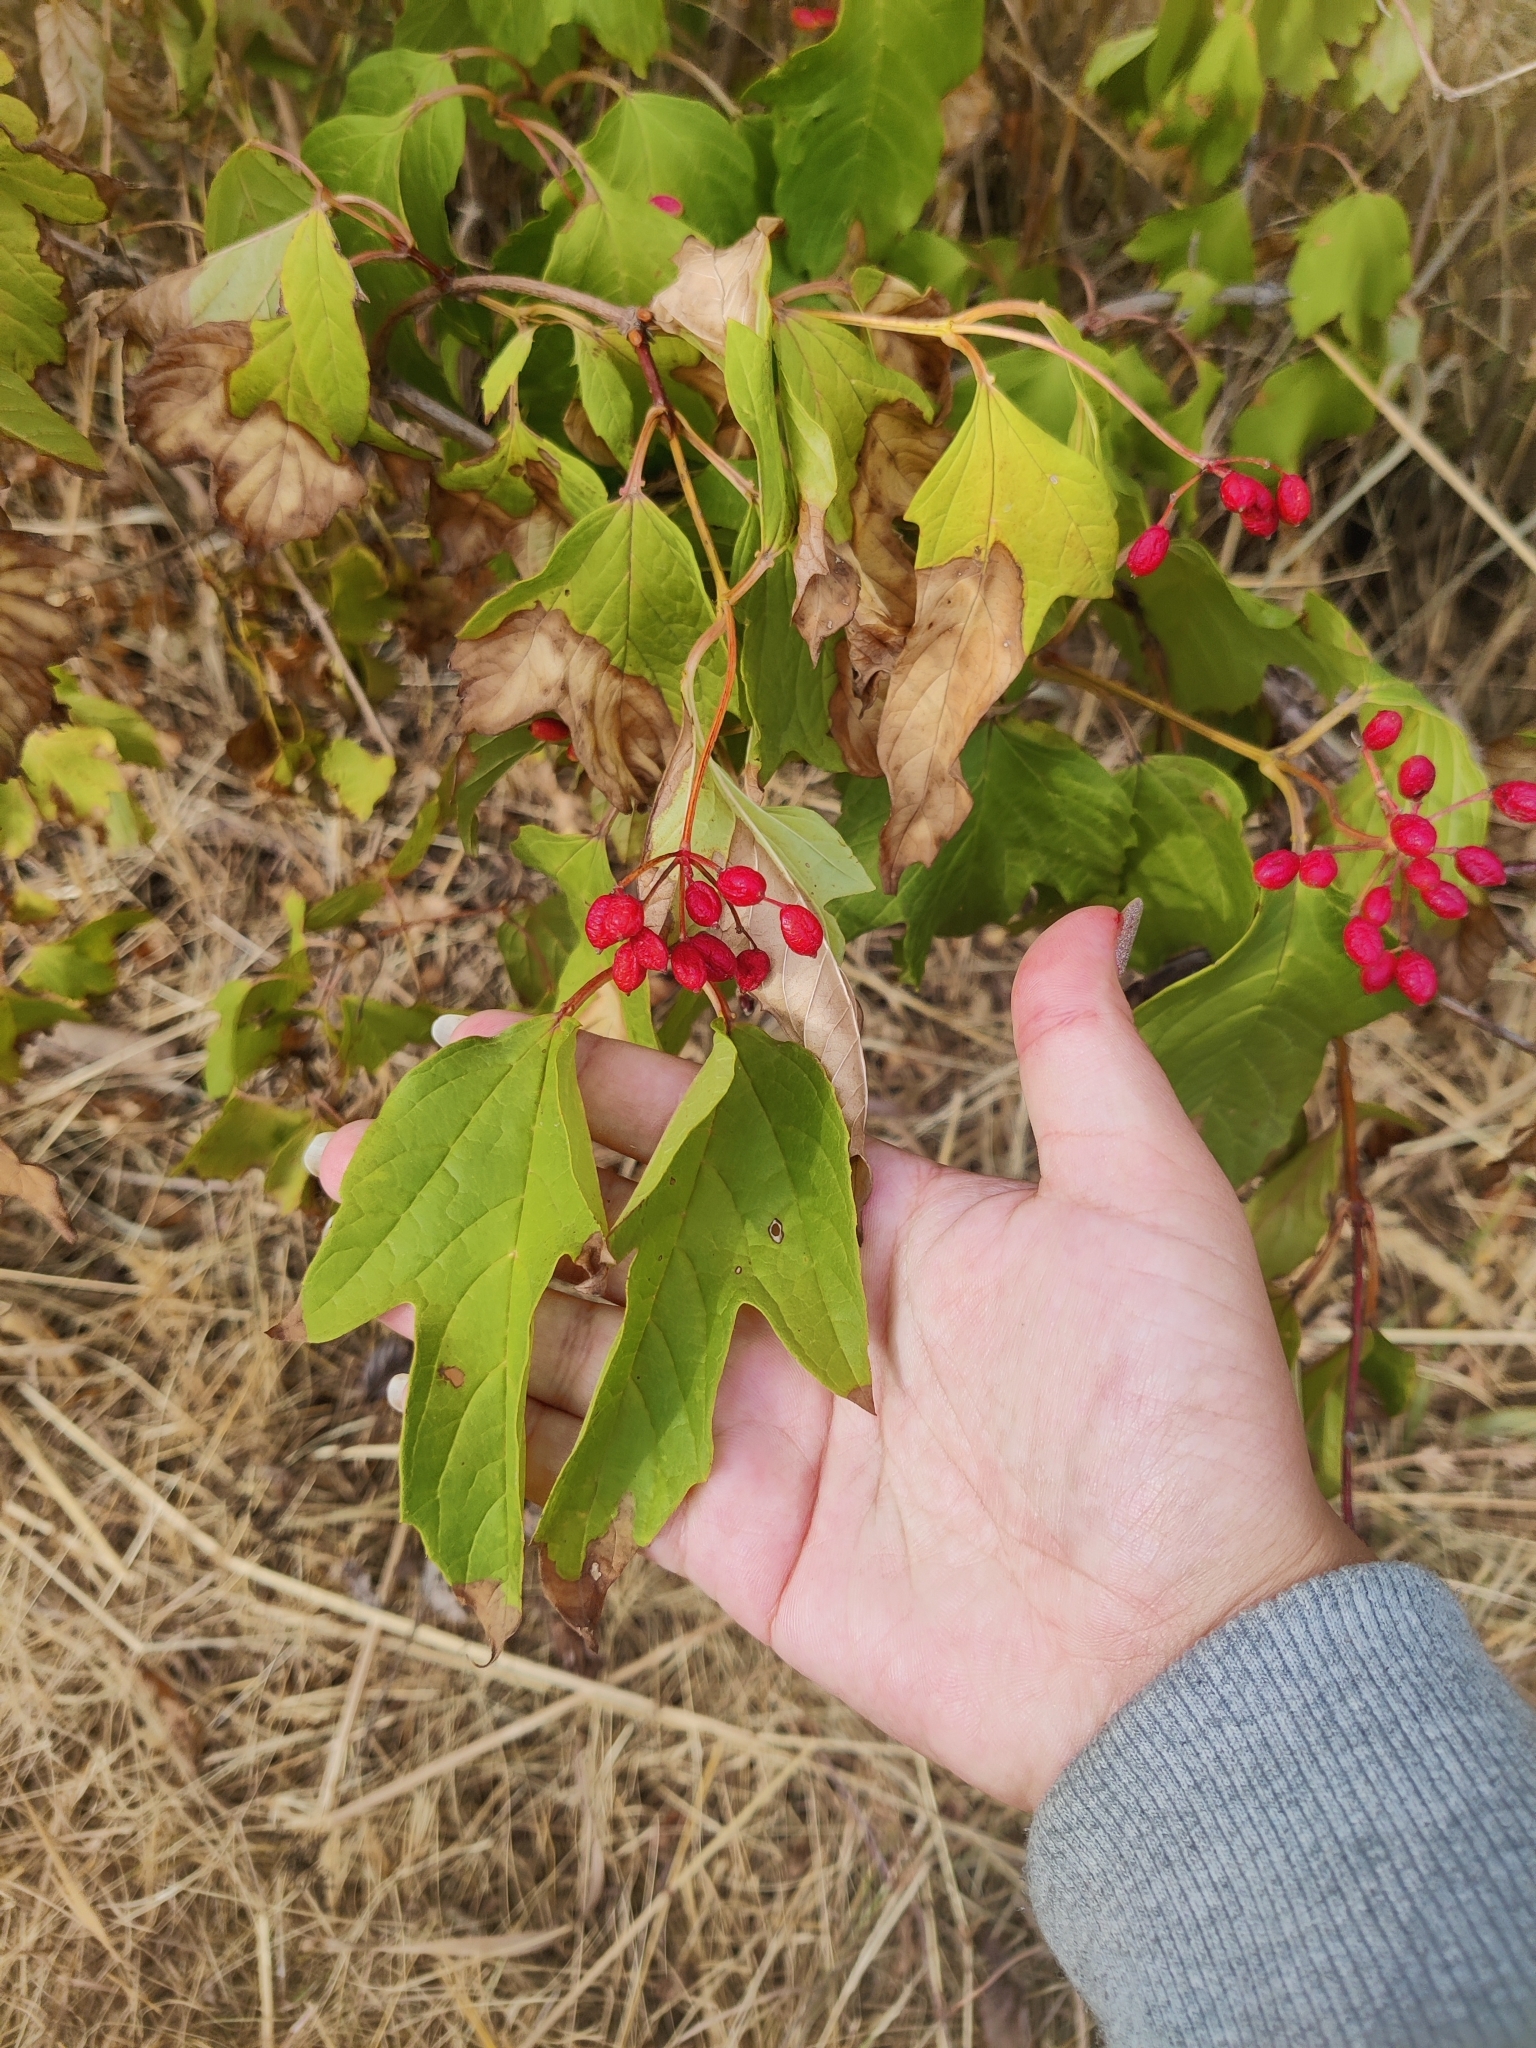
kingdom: Plantae
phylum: Tracheophyta
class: Magnoliopsida
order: Dipsacales
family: Viburnaceae
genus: Viburnum
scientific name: Viburnum opulus
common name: Guelder-rose
